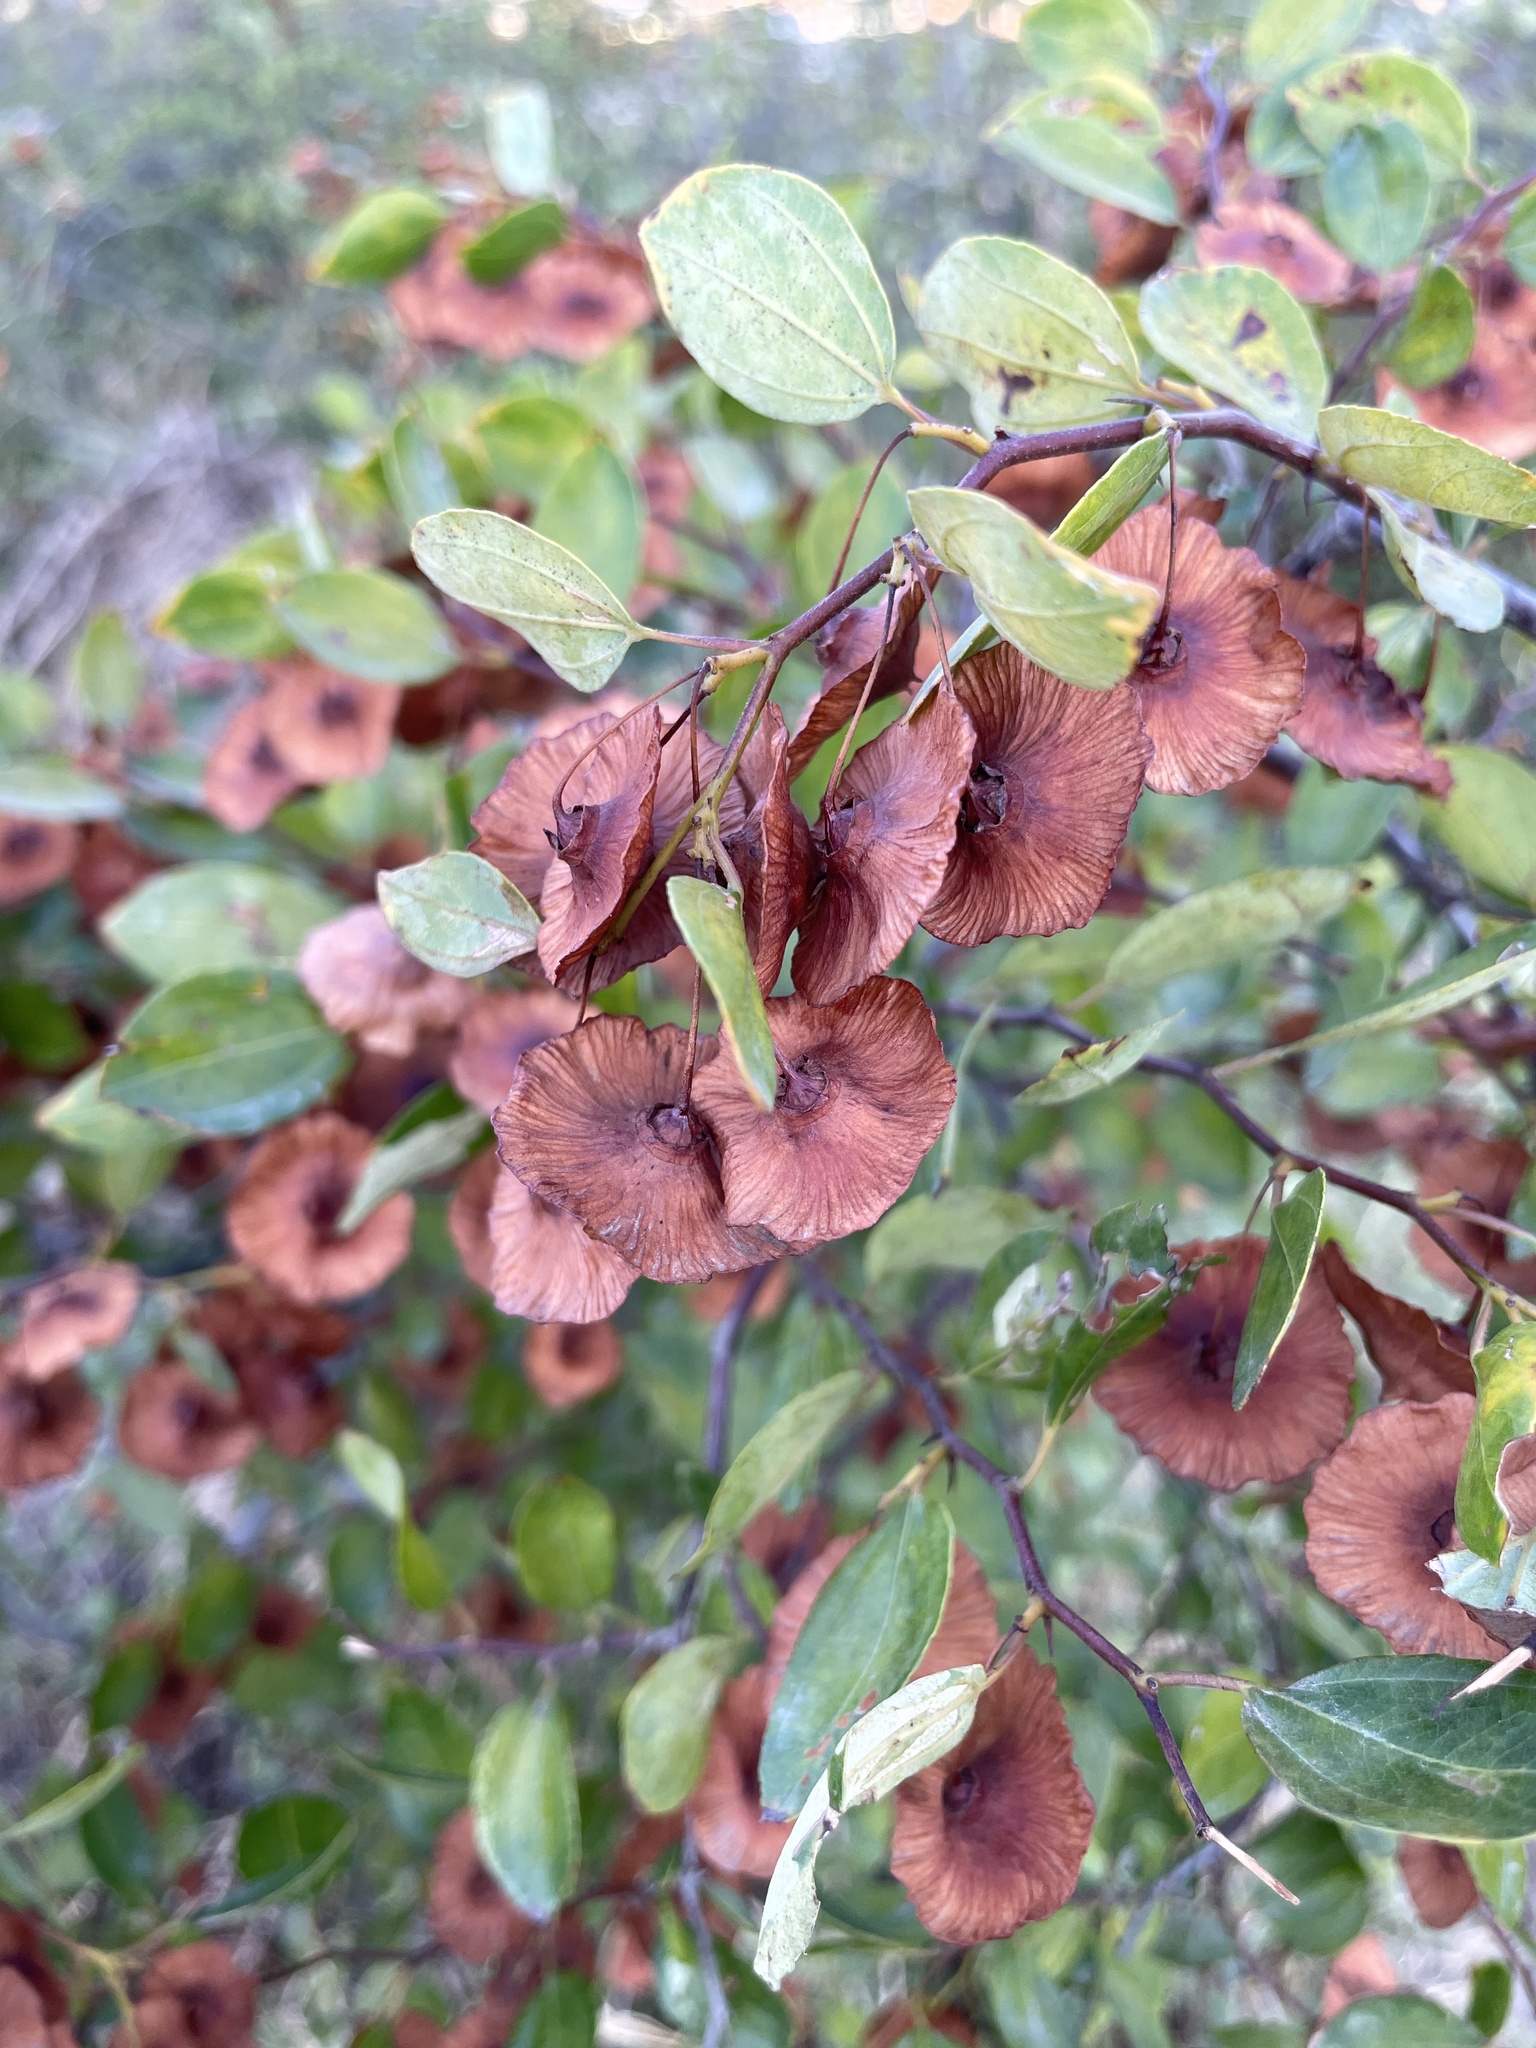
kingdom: Plantae
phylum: Tracheophyta
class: Magnoliopsida
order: Rosales
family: Rhamnaceae
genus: Paliurus
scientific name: Paliurus spina-christi
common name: Jeruselem thorn
